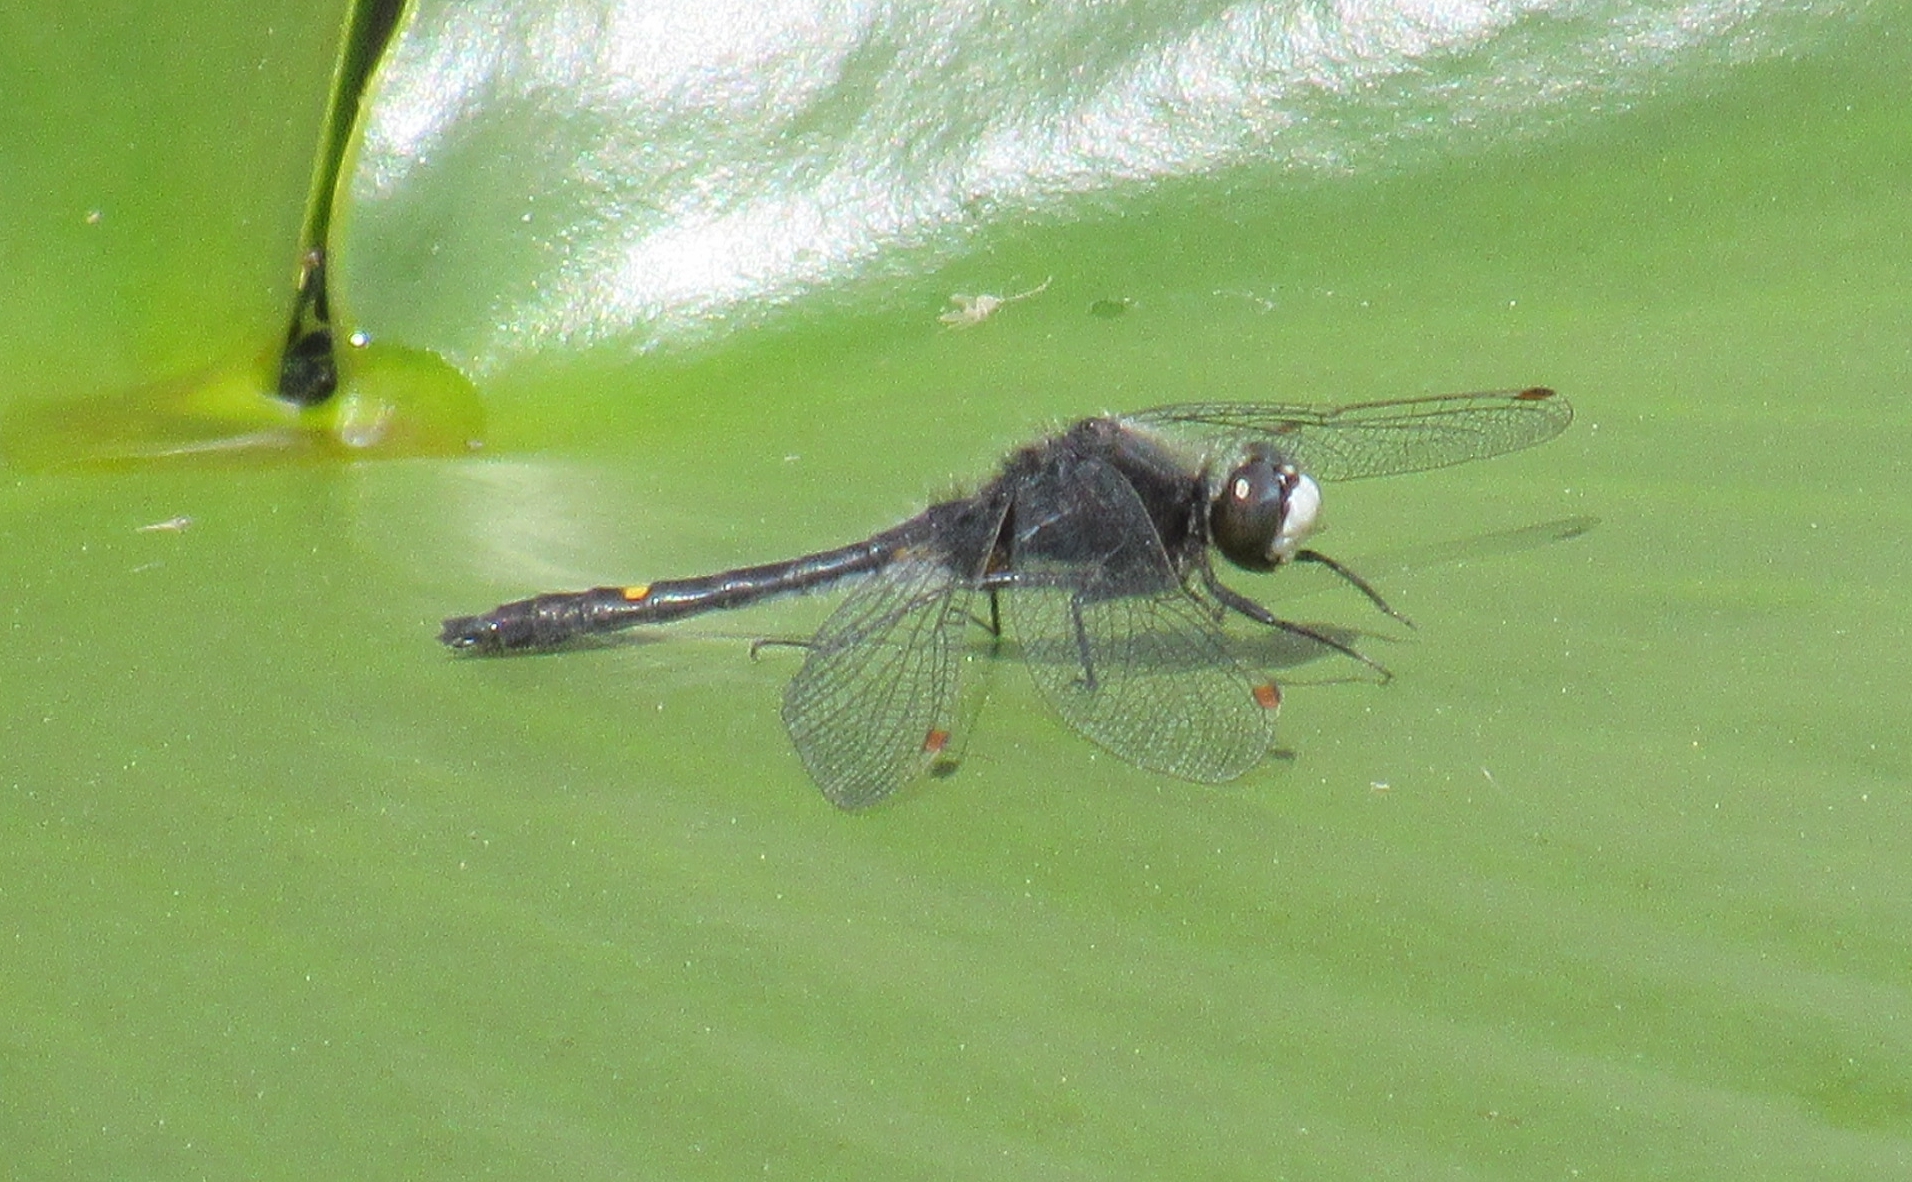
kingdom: Animalia
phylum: Arthropoda
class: Insecta
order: Odonata
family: Libellulidae
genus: Leucorrhinia
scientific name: Leucorrhinia intacta
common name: Dot-tailed whiteface
